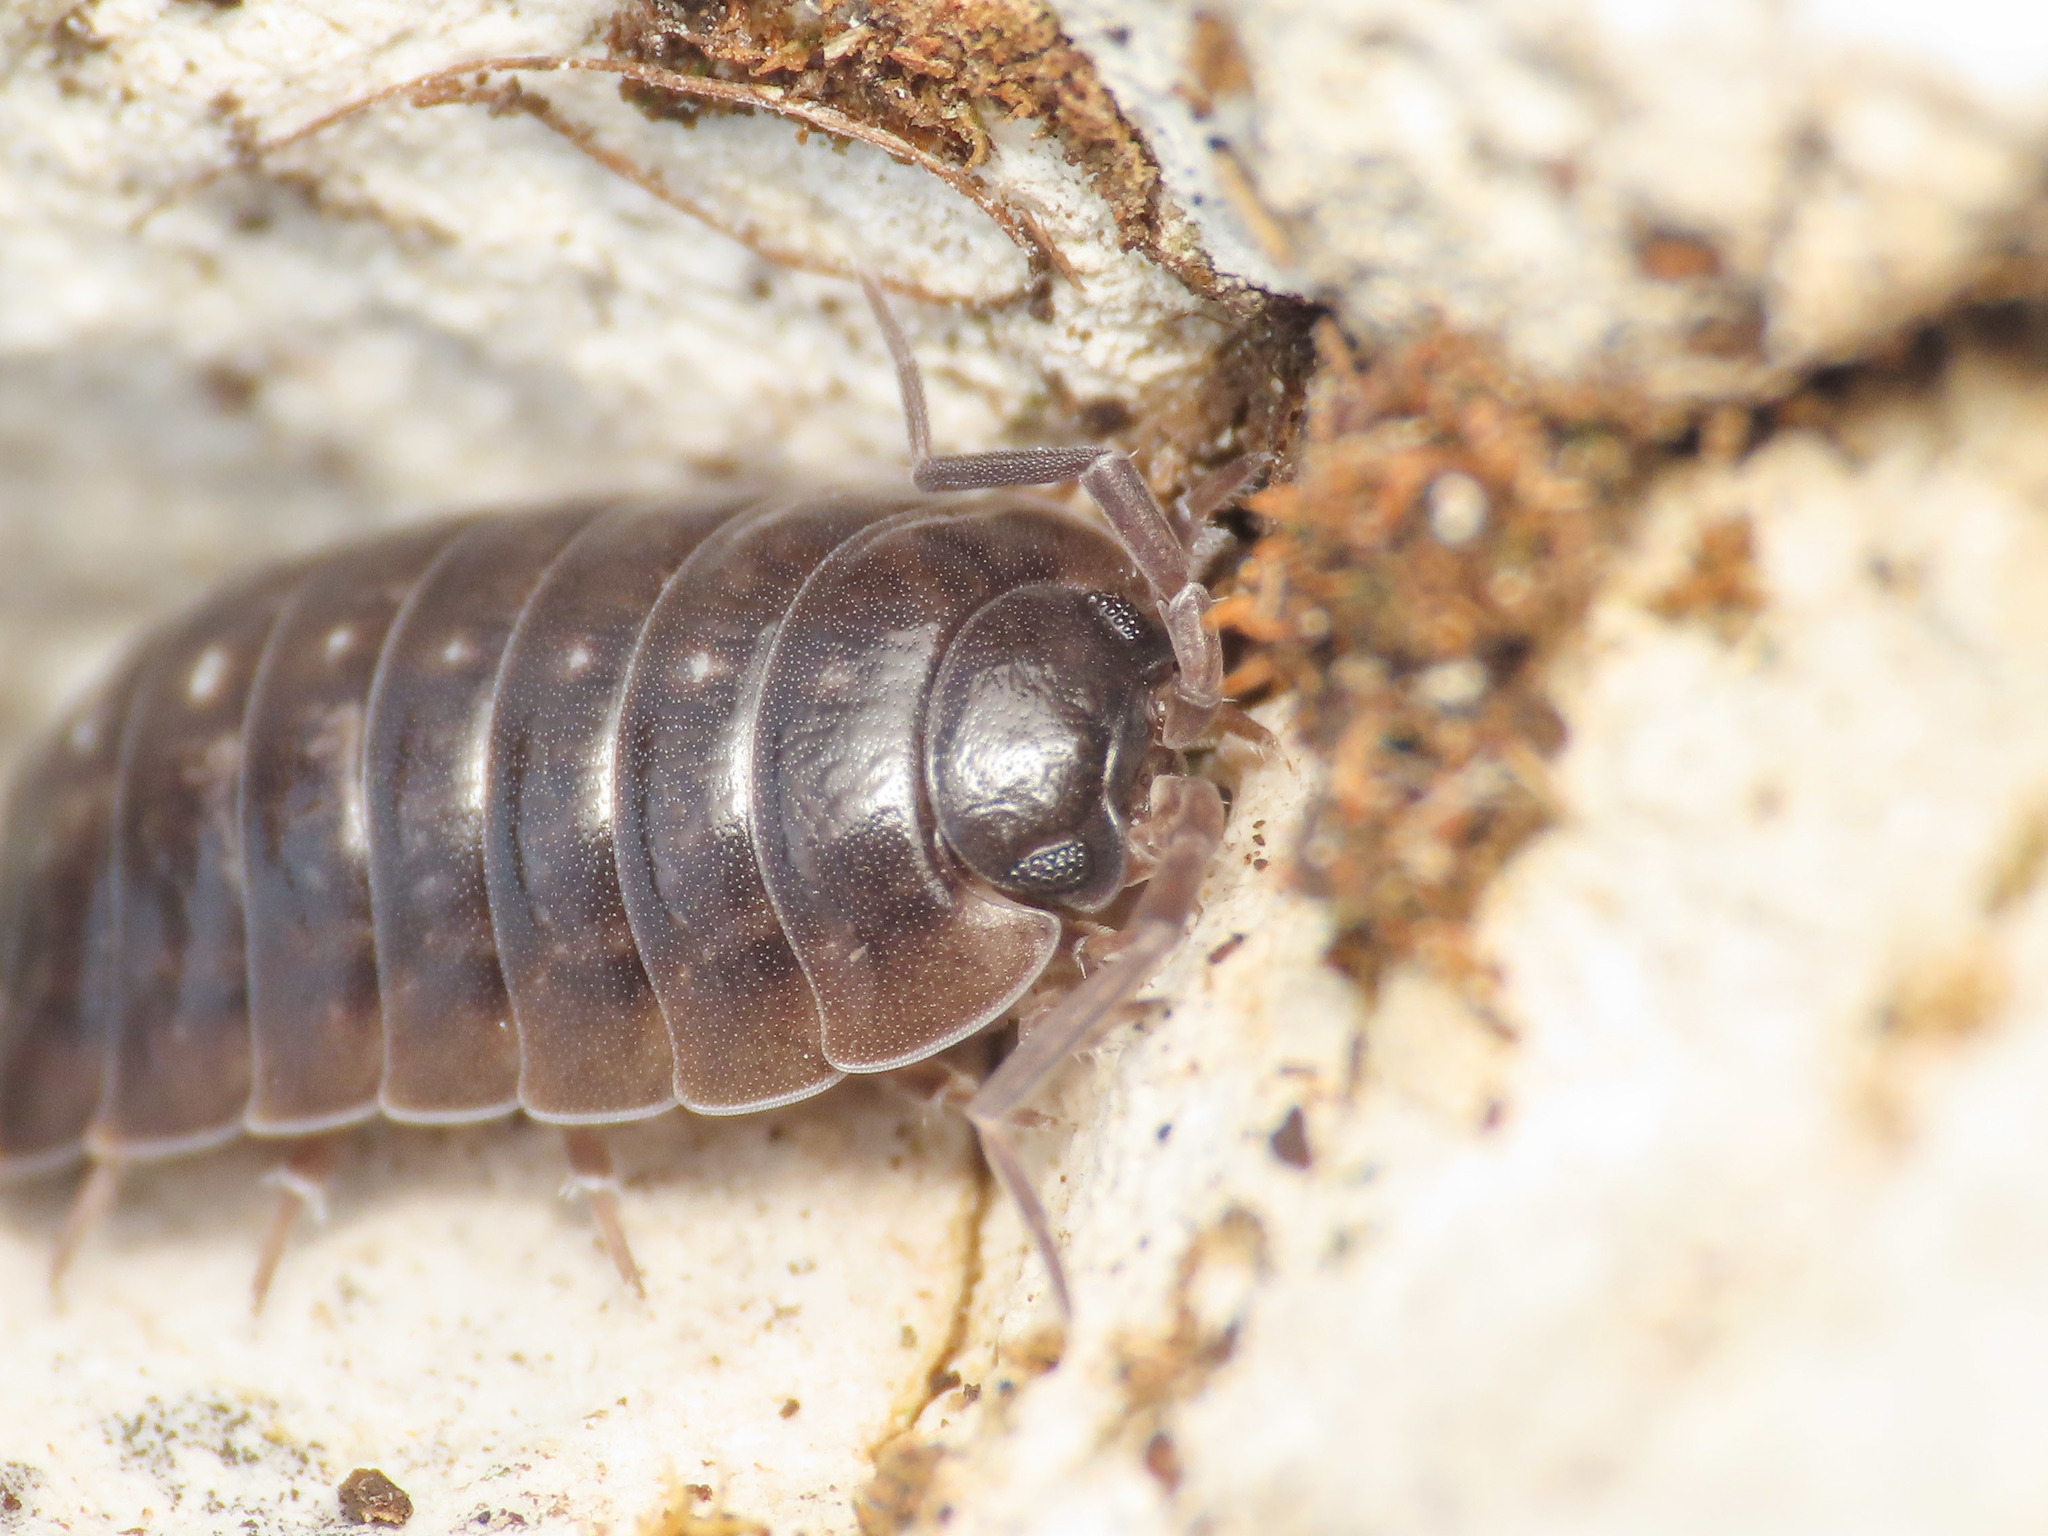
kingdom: Animalia
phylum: Arthropoda
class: Malacostraca
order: Isopoda
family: Porcellionidae
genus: Porcellio
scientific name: Porcellio glaberrimus
